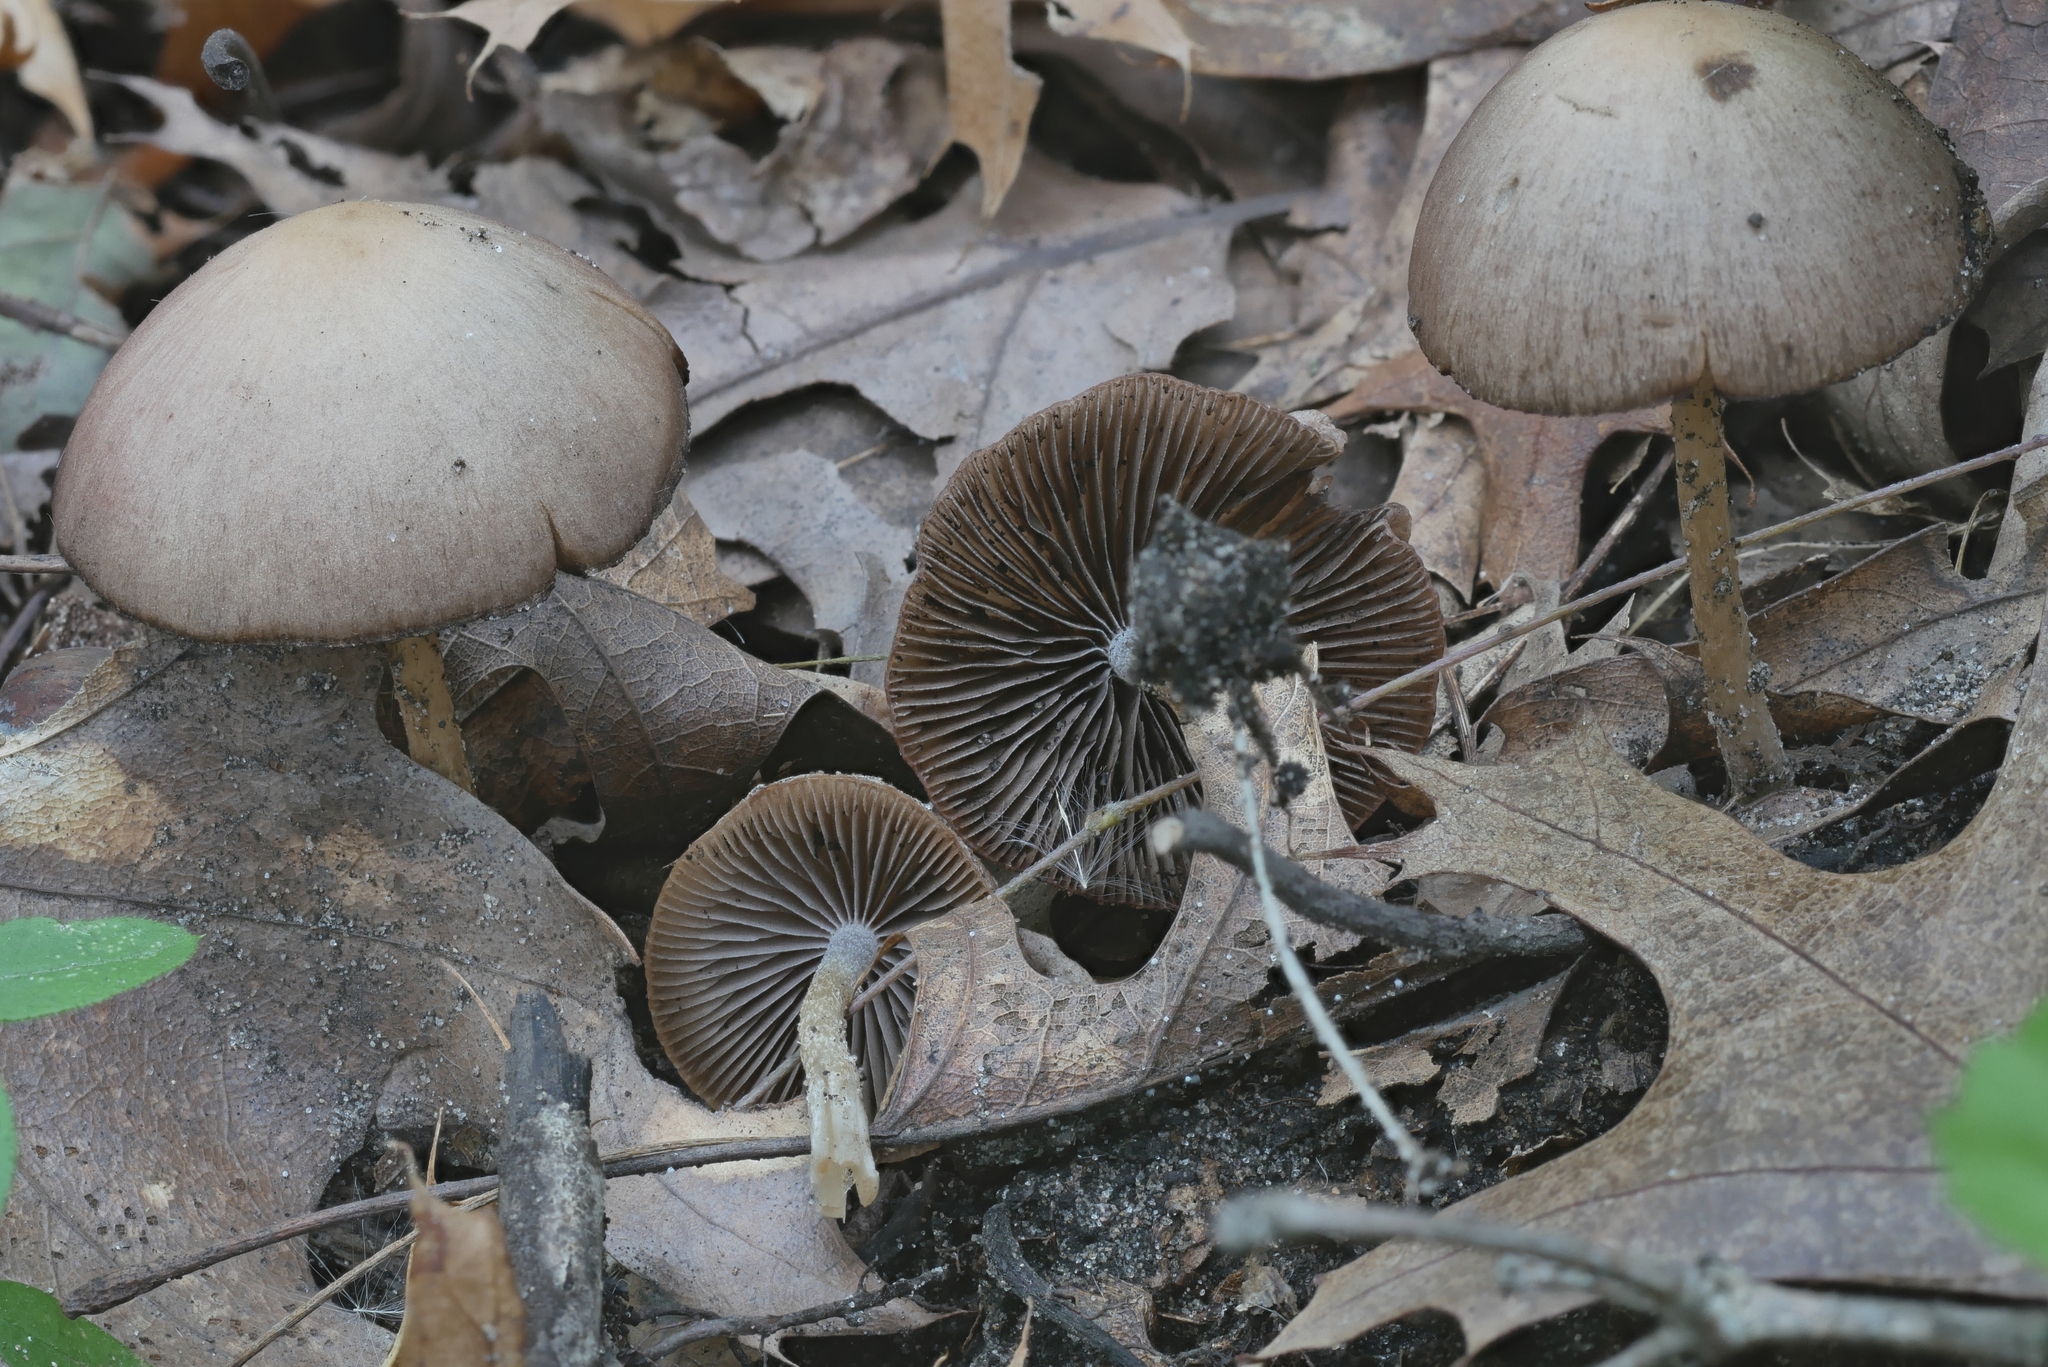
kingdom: Fungi
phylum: Basidiomycota
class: Agaricomycetes
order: Agaricales
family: Psathyrellaceae
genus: Psathyrella
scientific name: Psathyrella impexa
